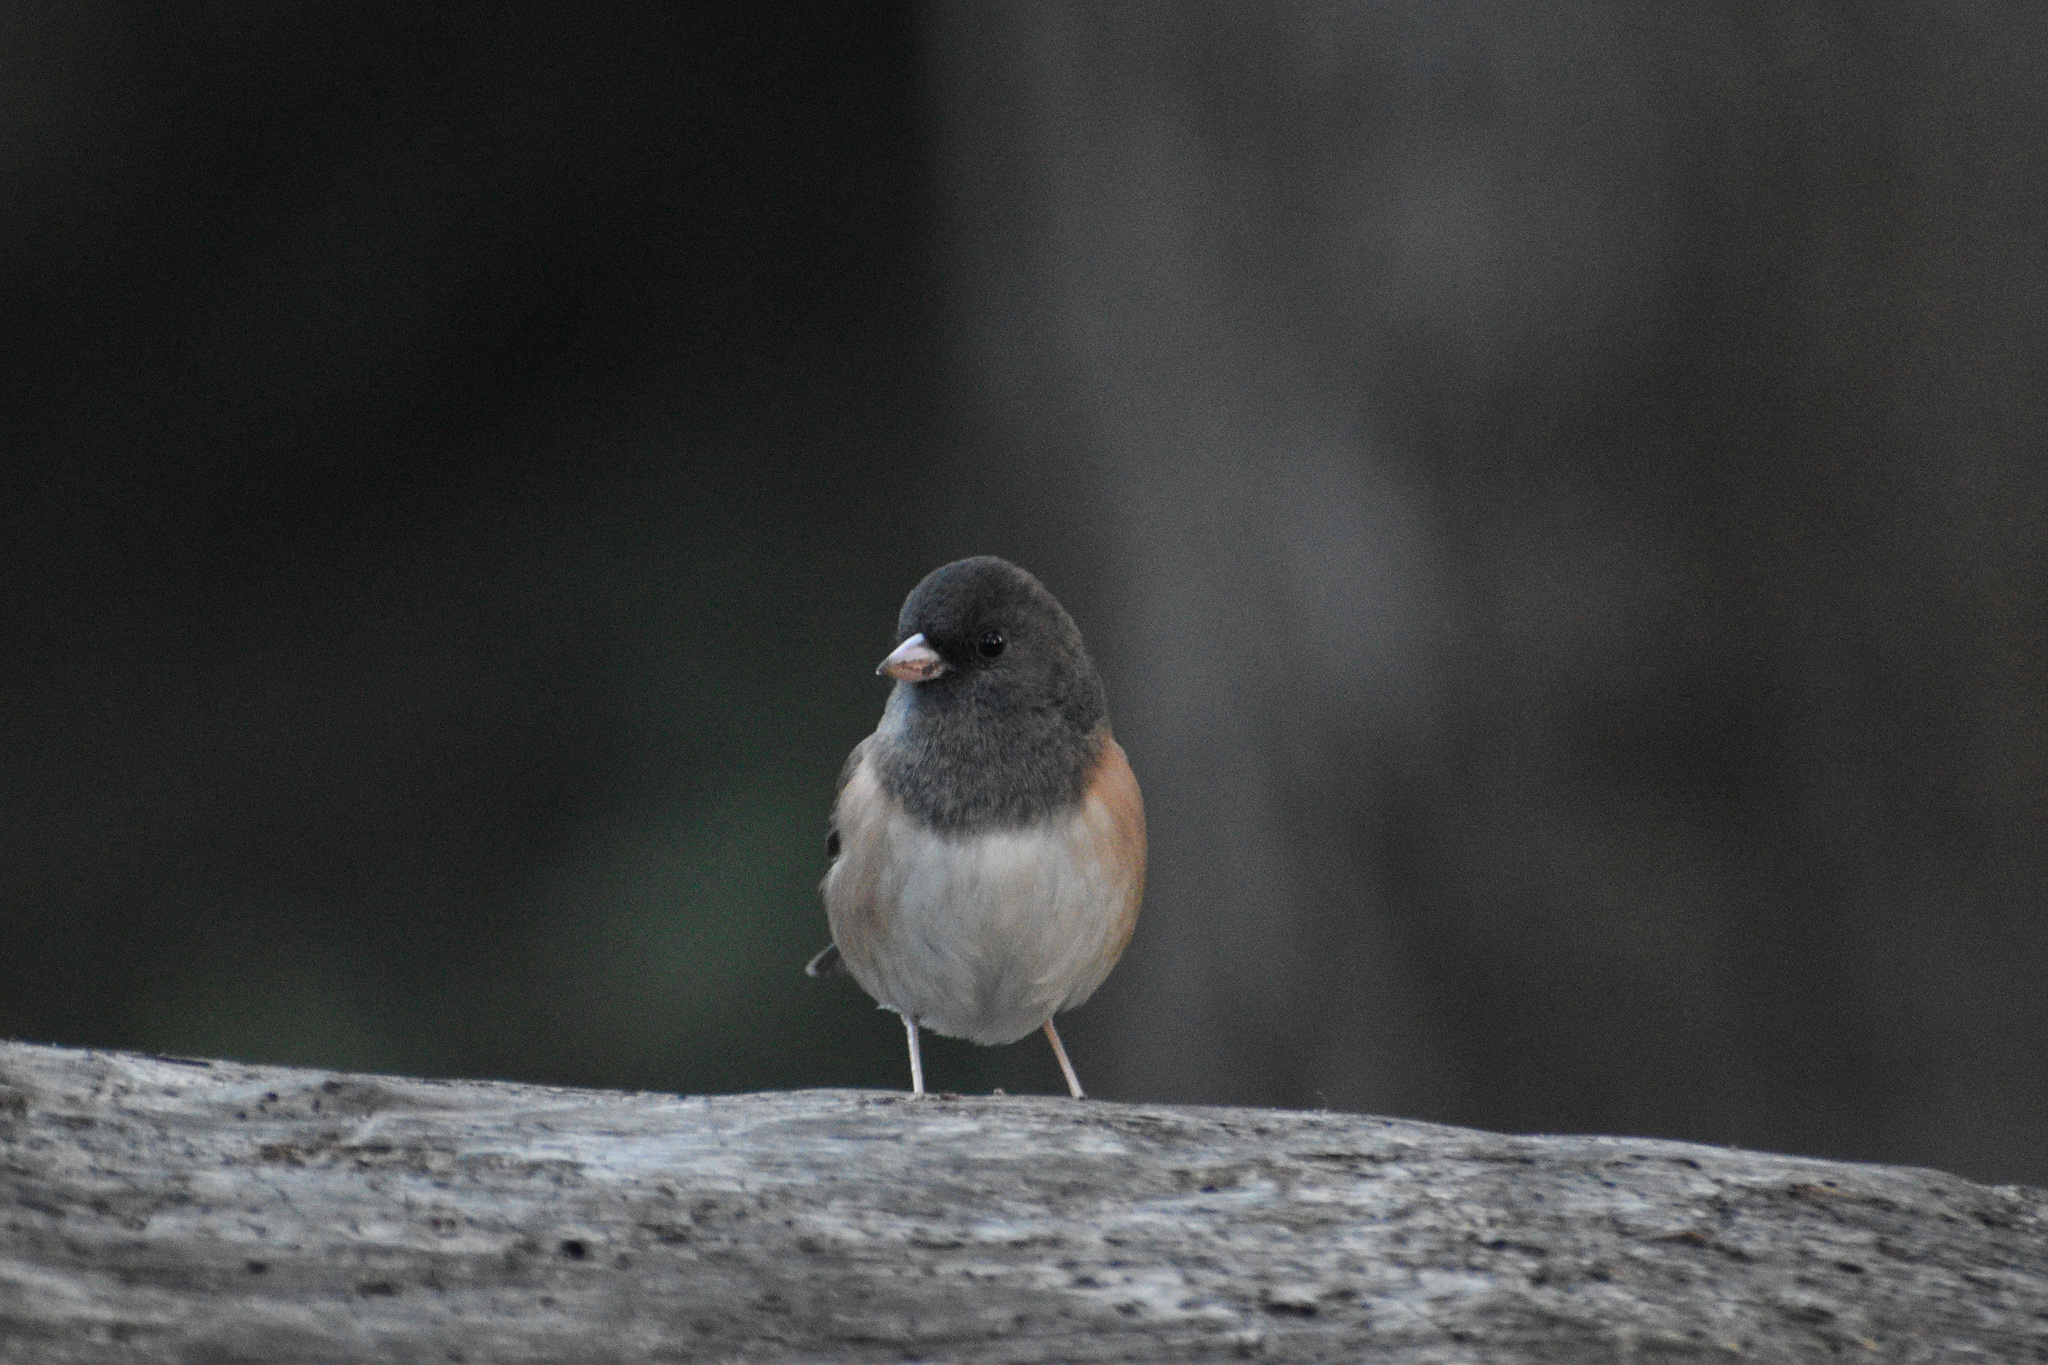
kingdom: Animalia
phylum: Chordata
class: Aves
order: Passeriformes
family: Passerellidae
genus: Junco
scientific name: Junco hyemalis
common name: Dark-eyed junco
